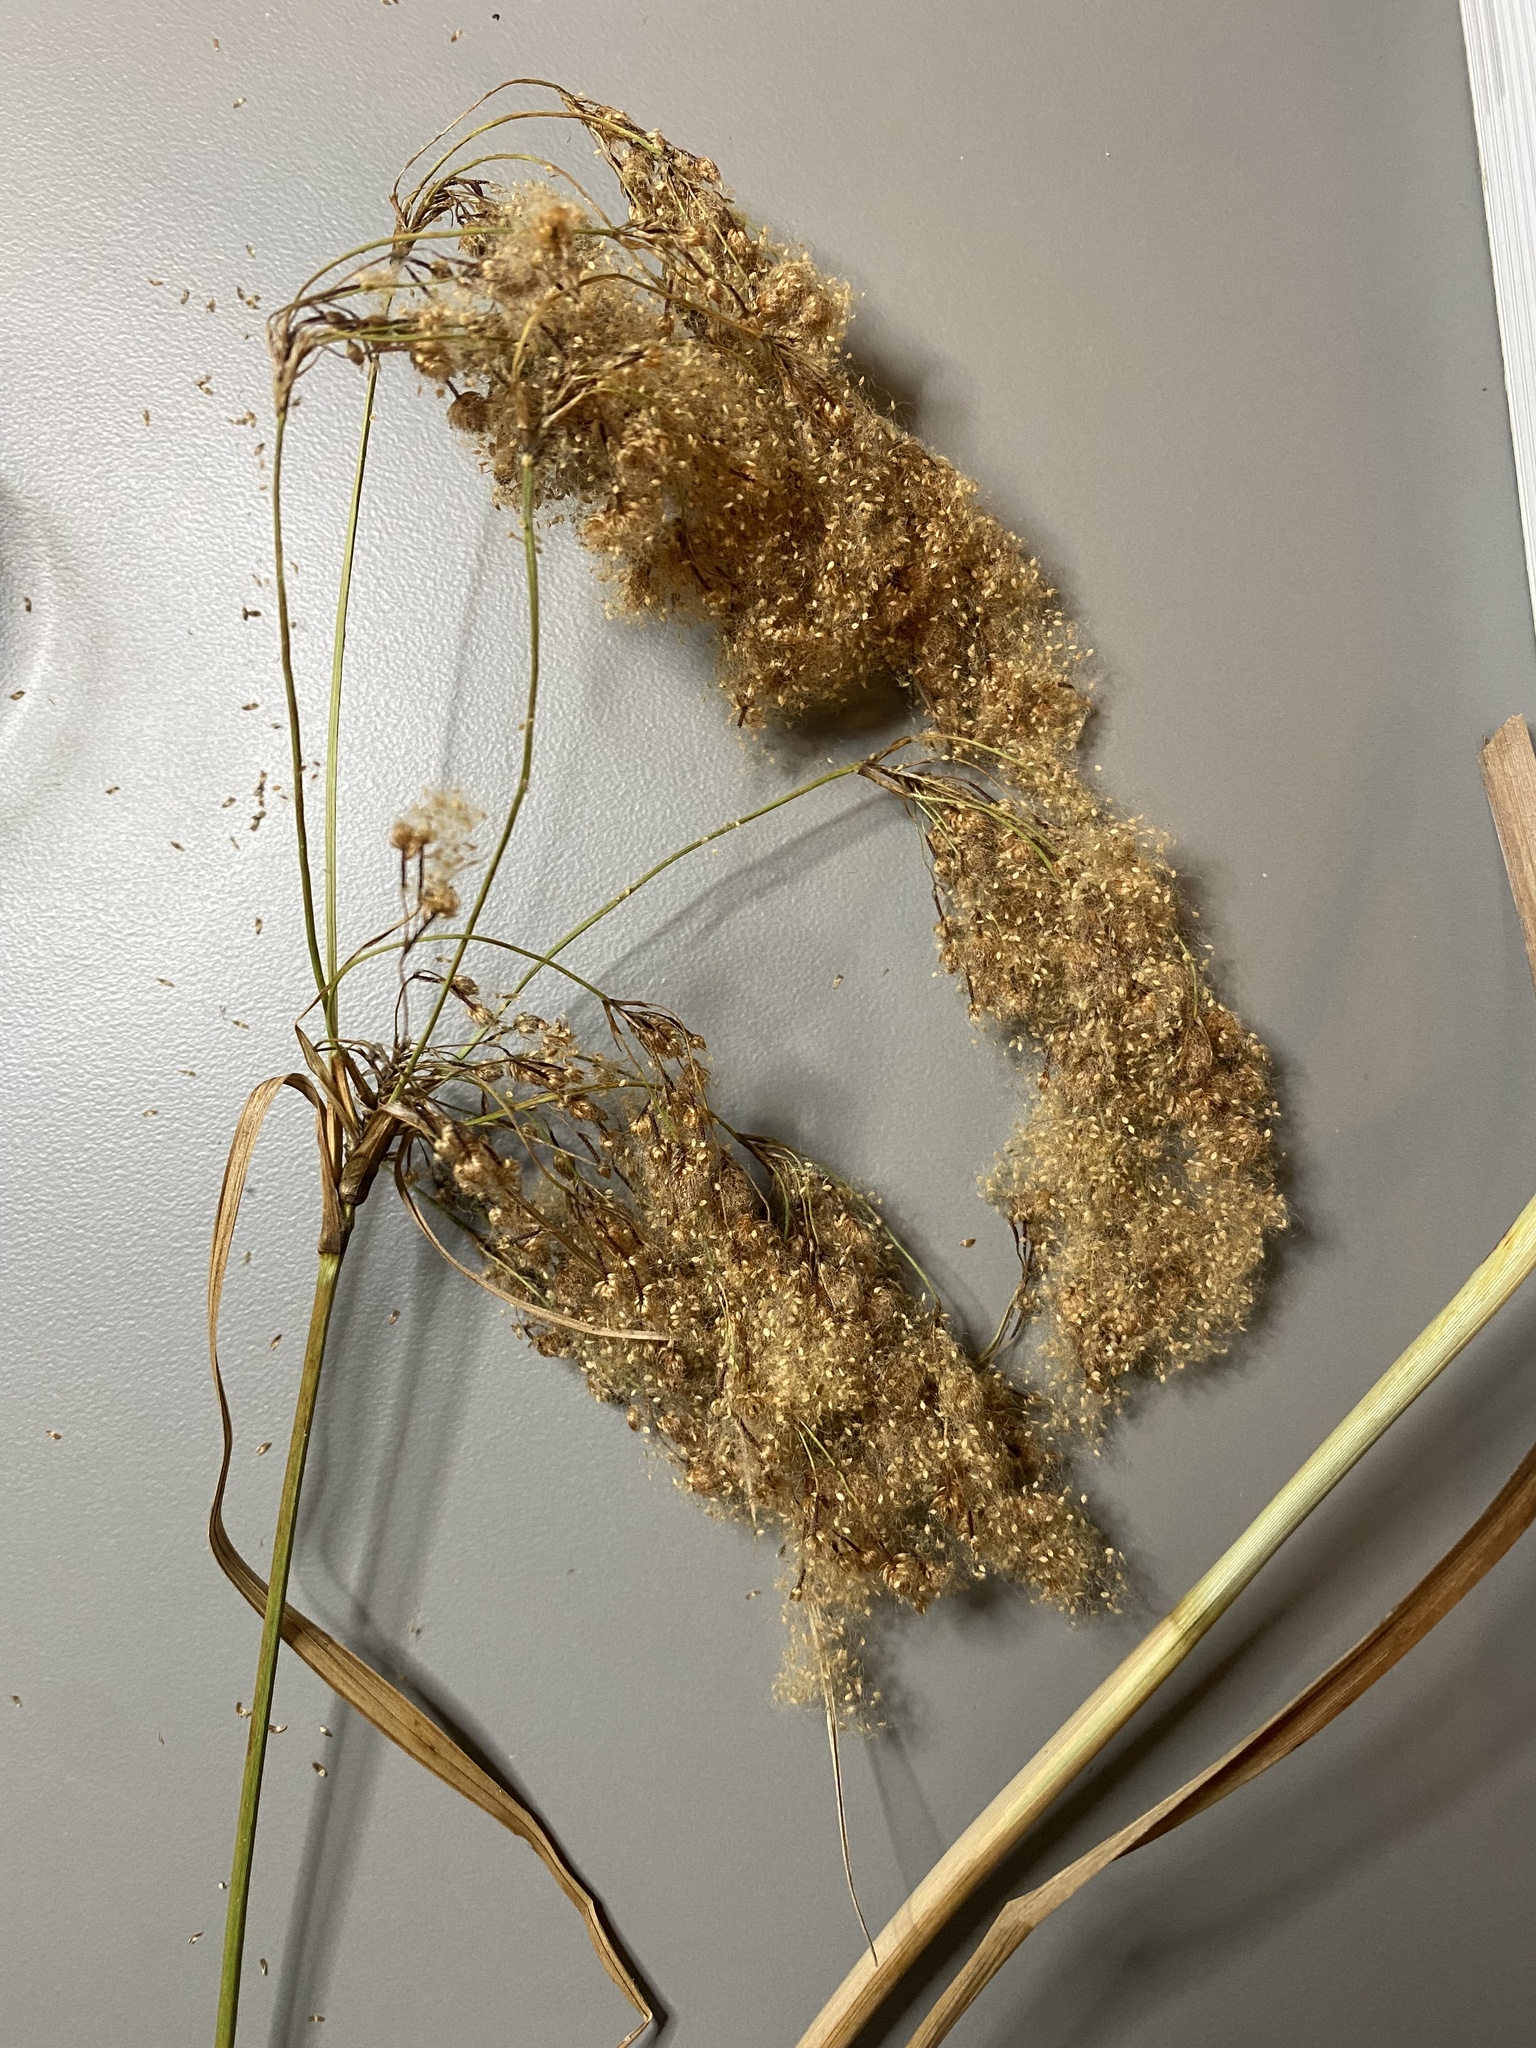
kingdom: Plantae
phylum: Tracheophyta
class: Liliopsida
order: Poales
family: Cyperaceae
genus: Scirpus
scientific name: Scirpus cyperinus
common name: Black-sheathed bulrush
